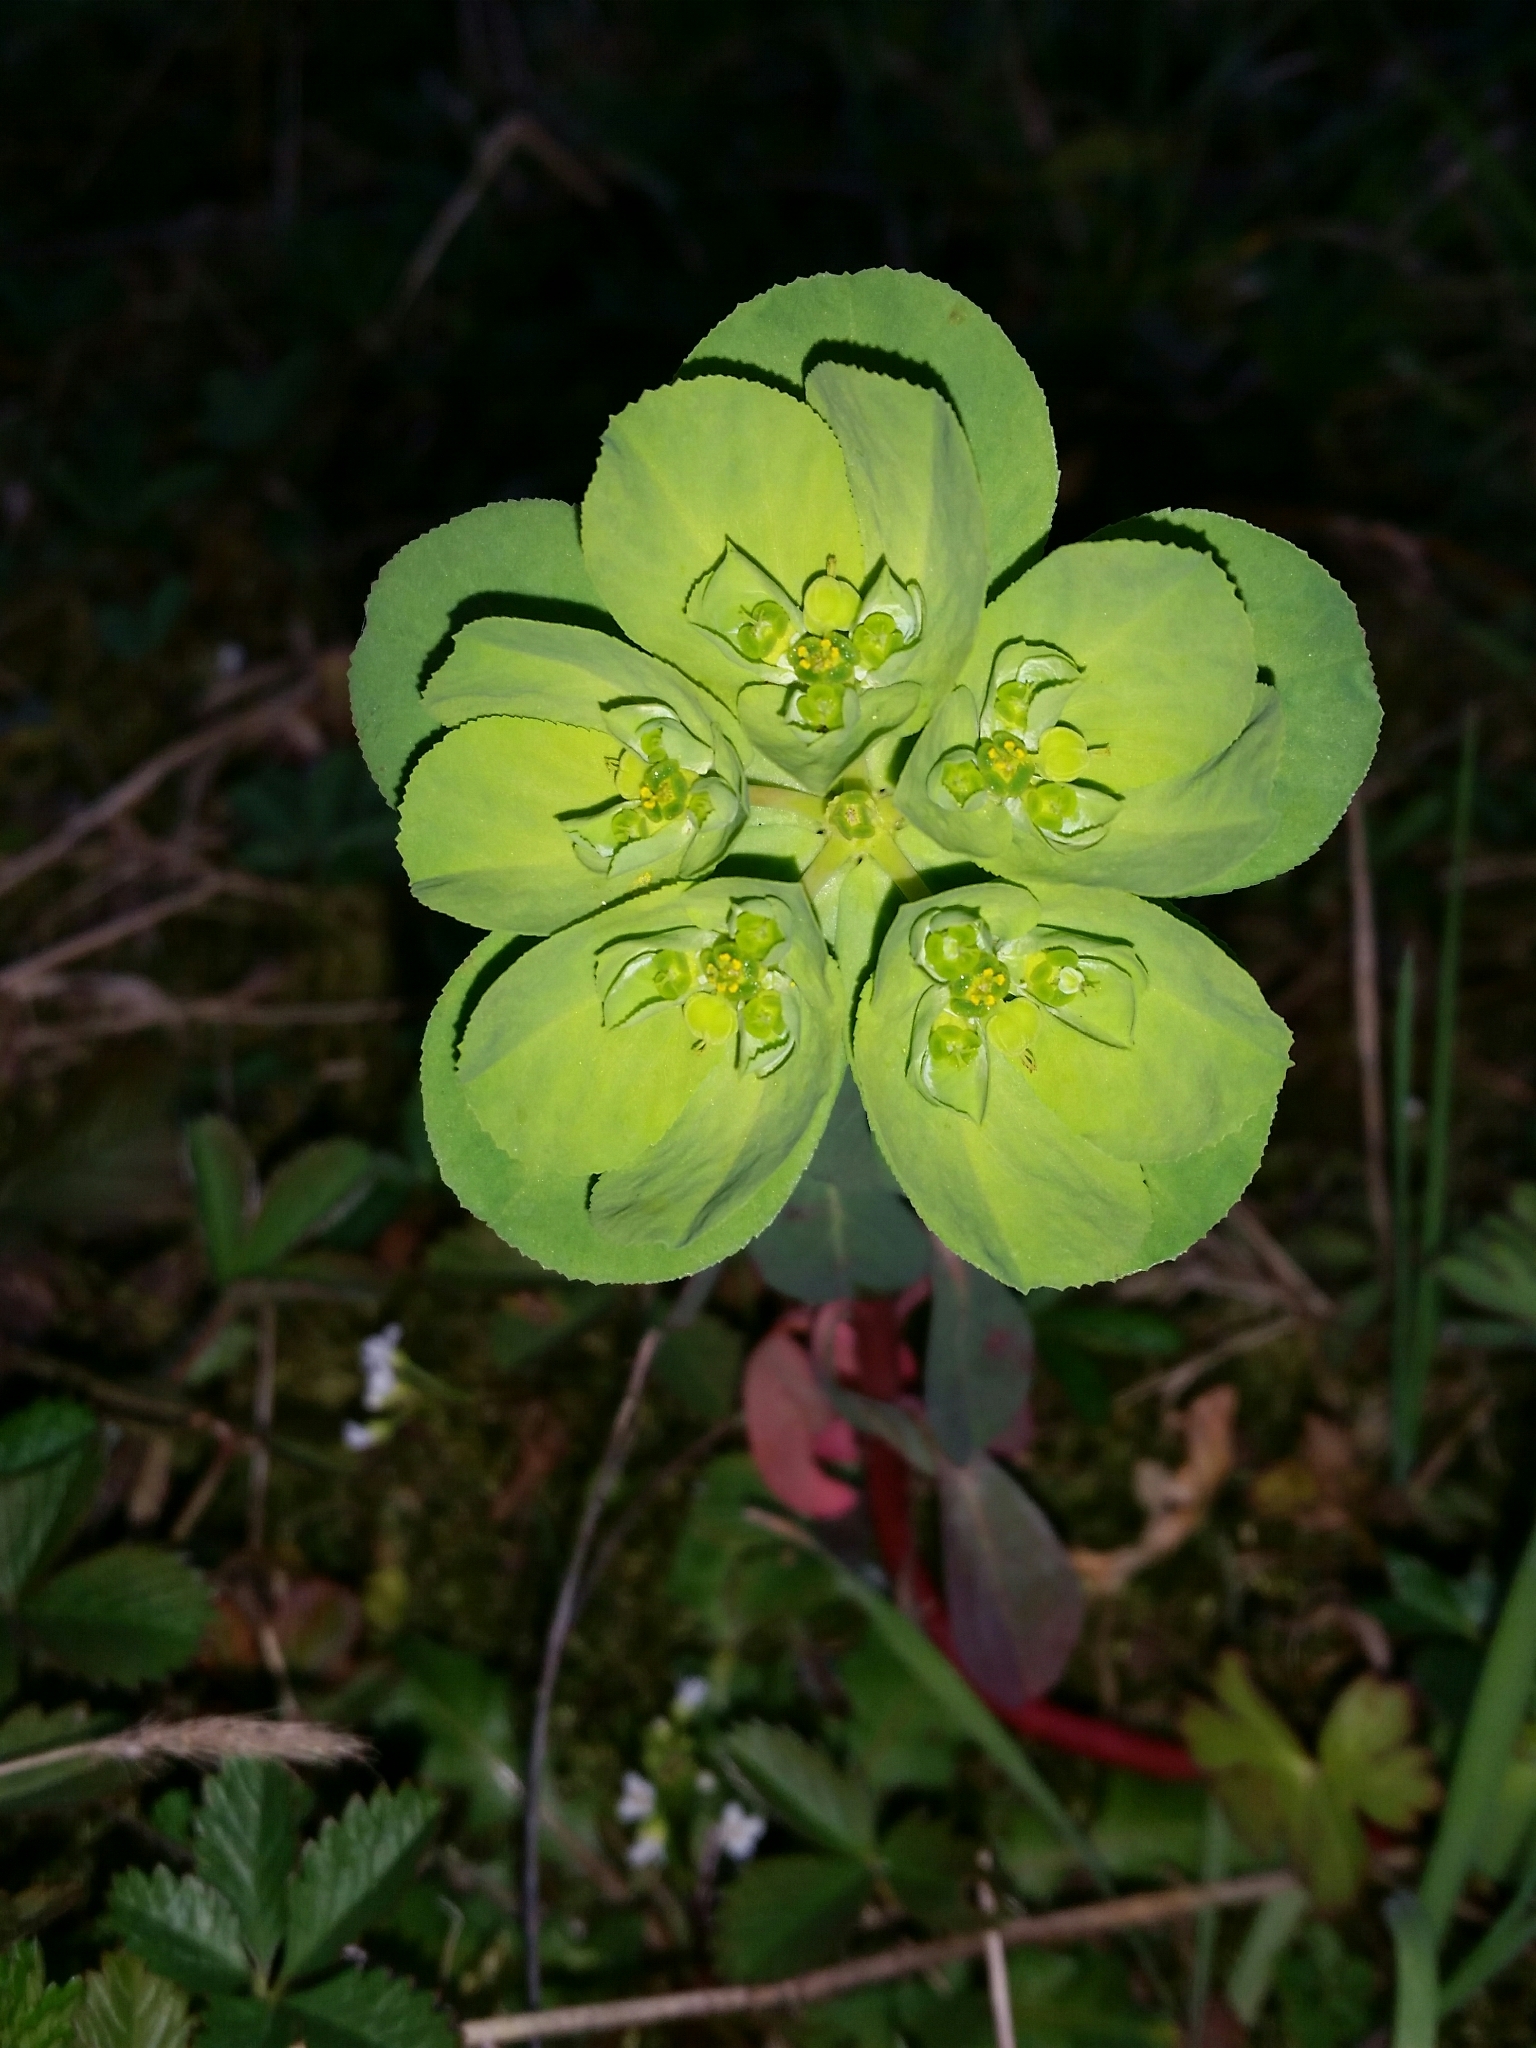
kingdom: Plantae
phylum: Tracheophyta
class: Magnoliopsida
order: Malpighiales
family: Euphorbiaceae
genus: Euphorbia
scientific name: Euphorbia helioscopia
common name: Sun spurge
